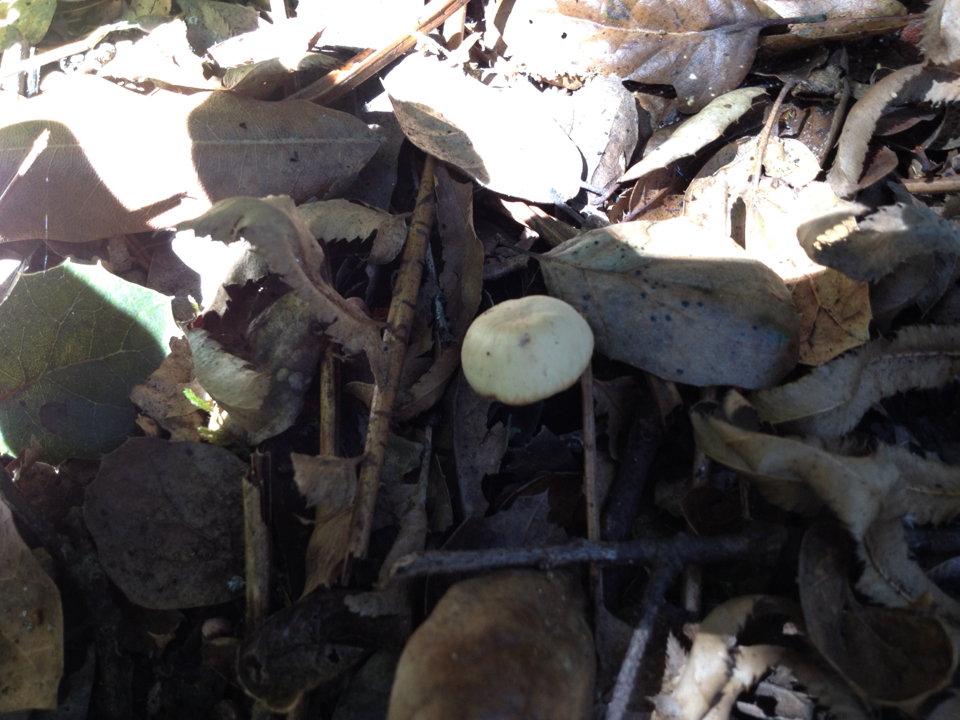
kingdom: Fungi
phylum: Basidiomycota
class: Agaricomycetes
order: Agaricales
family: Hydnangiaceae
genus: Laccaria
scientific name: Laccaria laccata
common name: Deceiver
